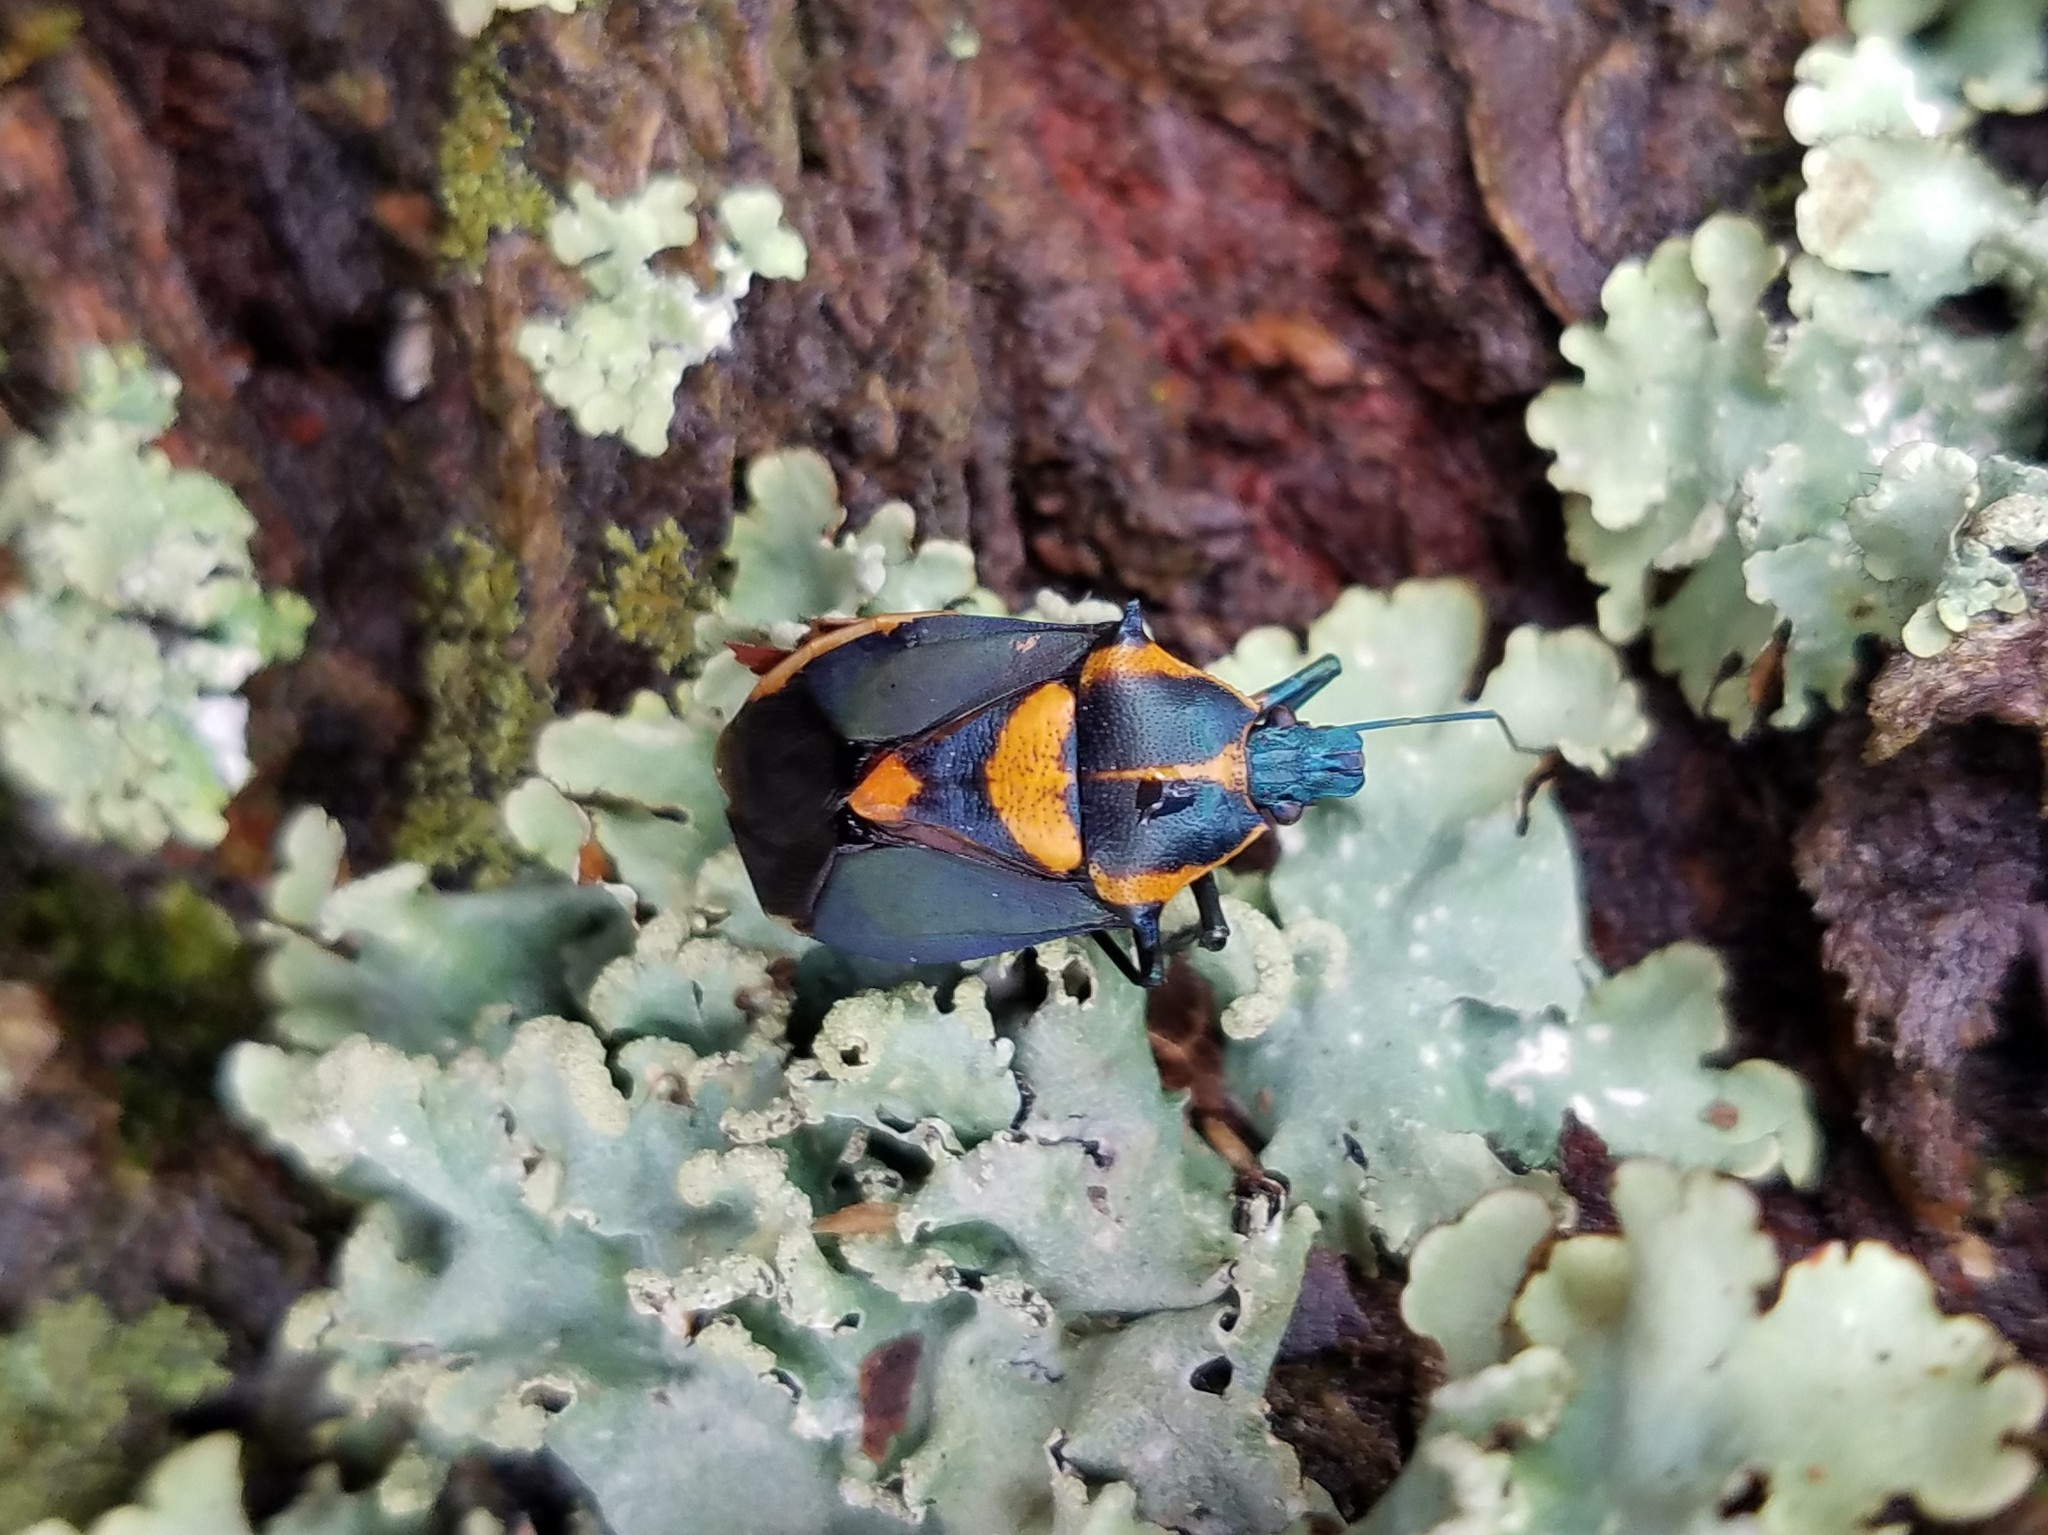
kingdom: Animalia
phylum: Arthropoda
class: Insecta
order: Hemiptera
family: Pentatomidae
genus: Euthyrhynchus
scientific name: Euthyrhynchus floridanus
